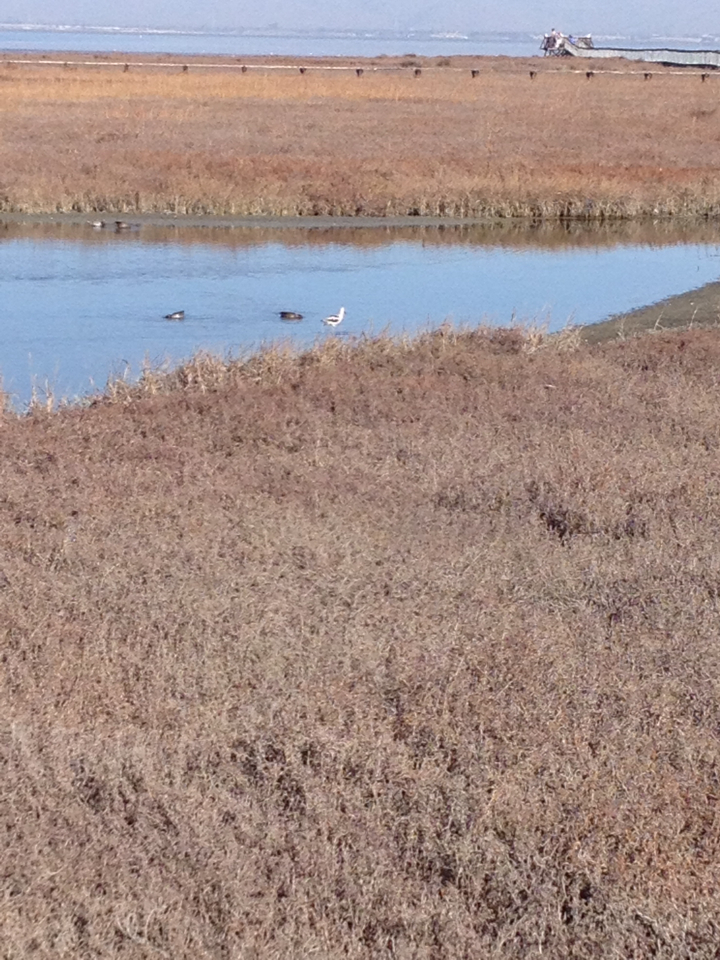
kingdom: Animalia
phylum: Chordata
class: Aves
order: Charadriiformes
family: Recurvirostridae
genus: Recurvirostra
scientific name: Recurvirostra americana
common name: American avocet
